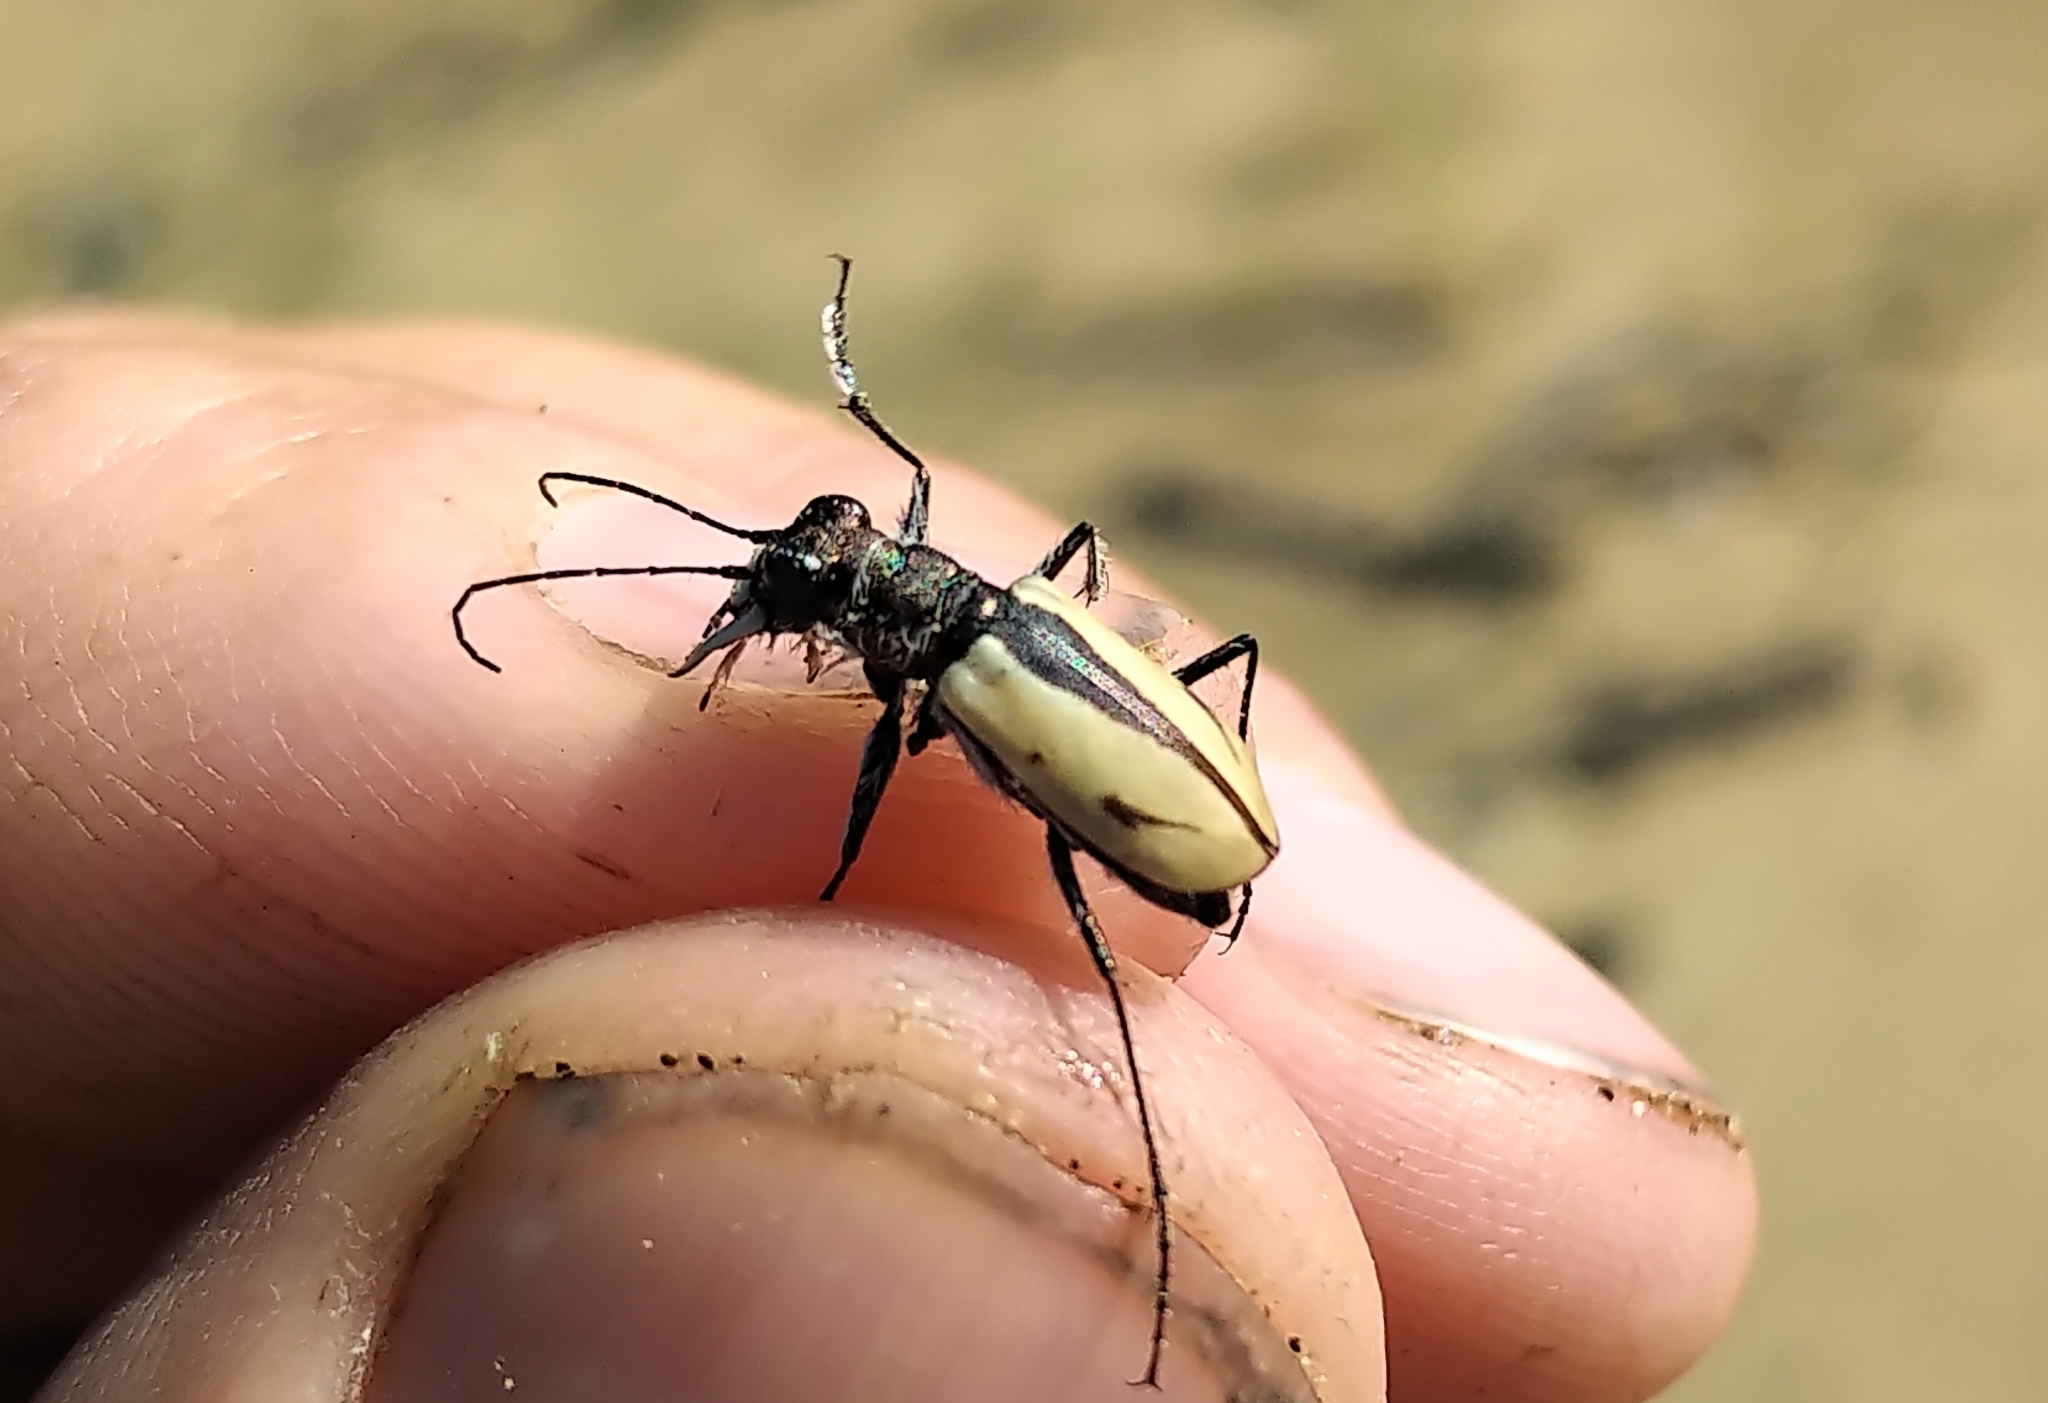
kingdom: Animalia
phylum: Arthropoda
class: Insecta
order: Coleoptera
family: Carabidae
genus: Cicindela
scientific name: Cicindela limbata
